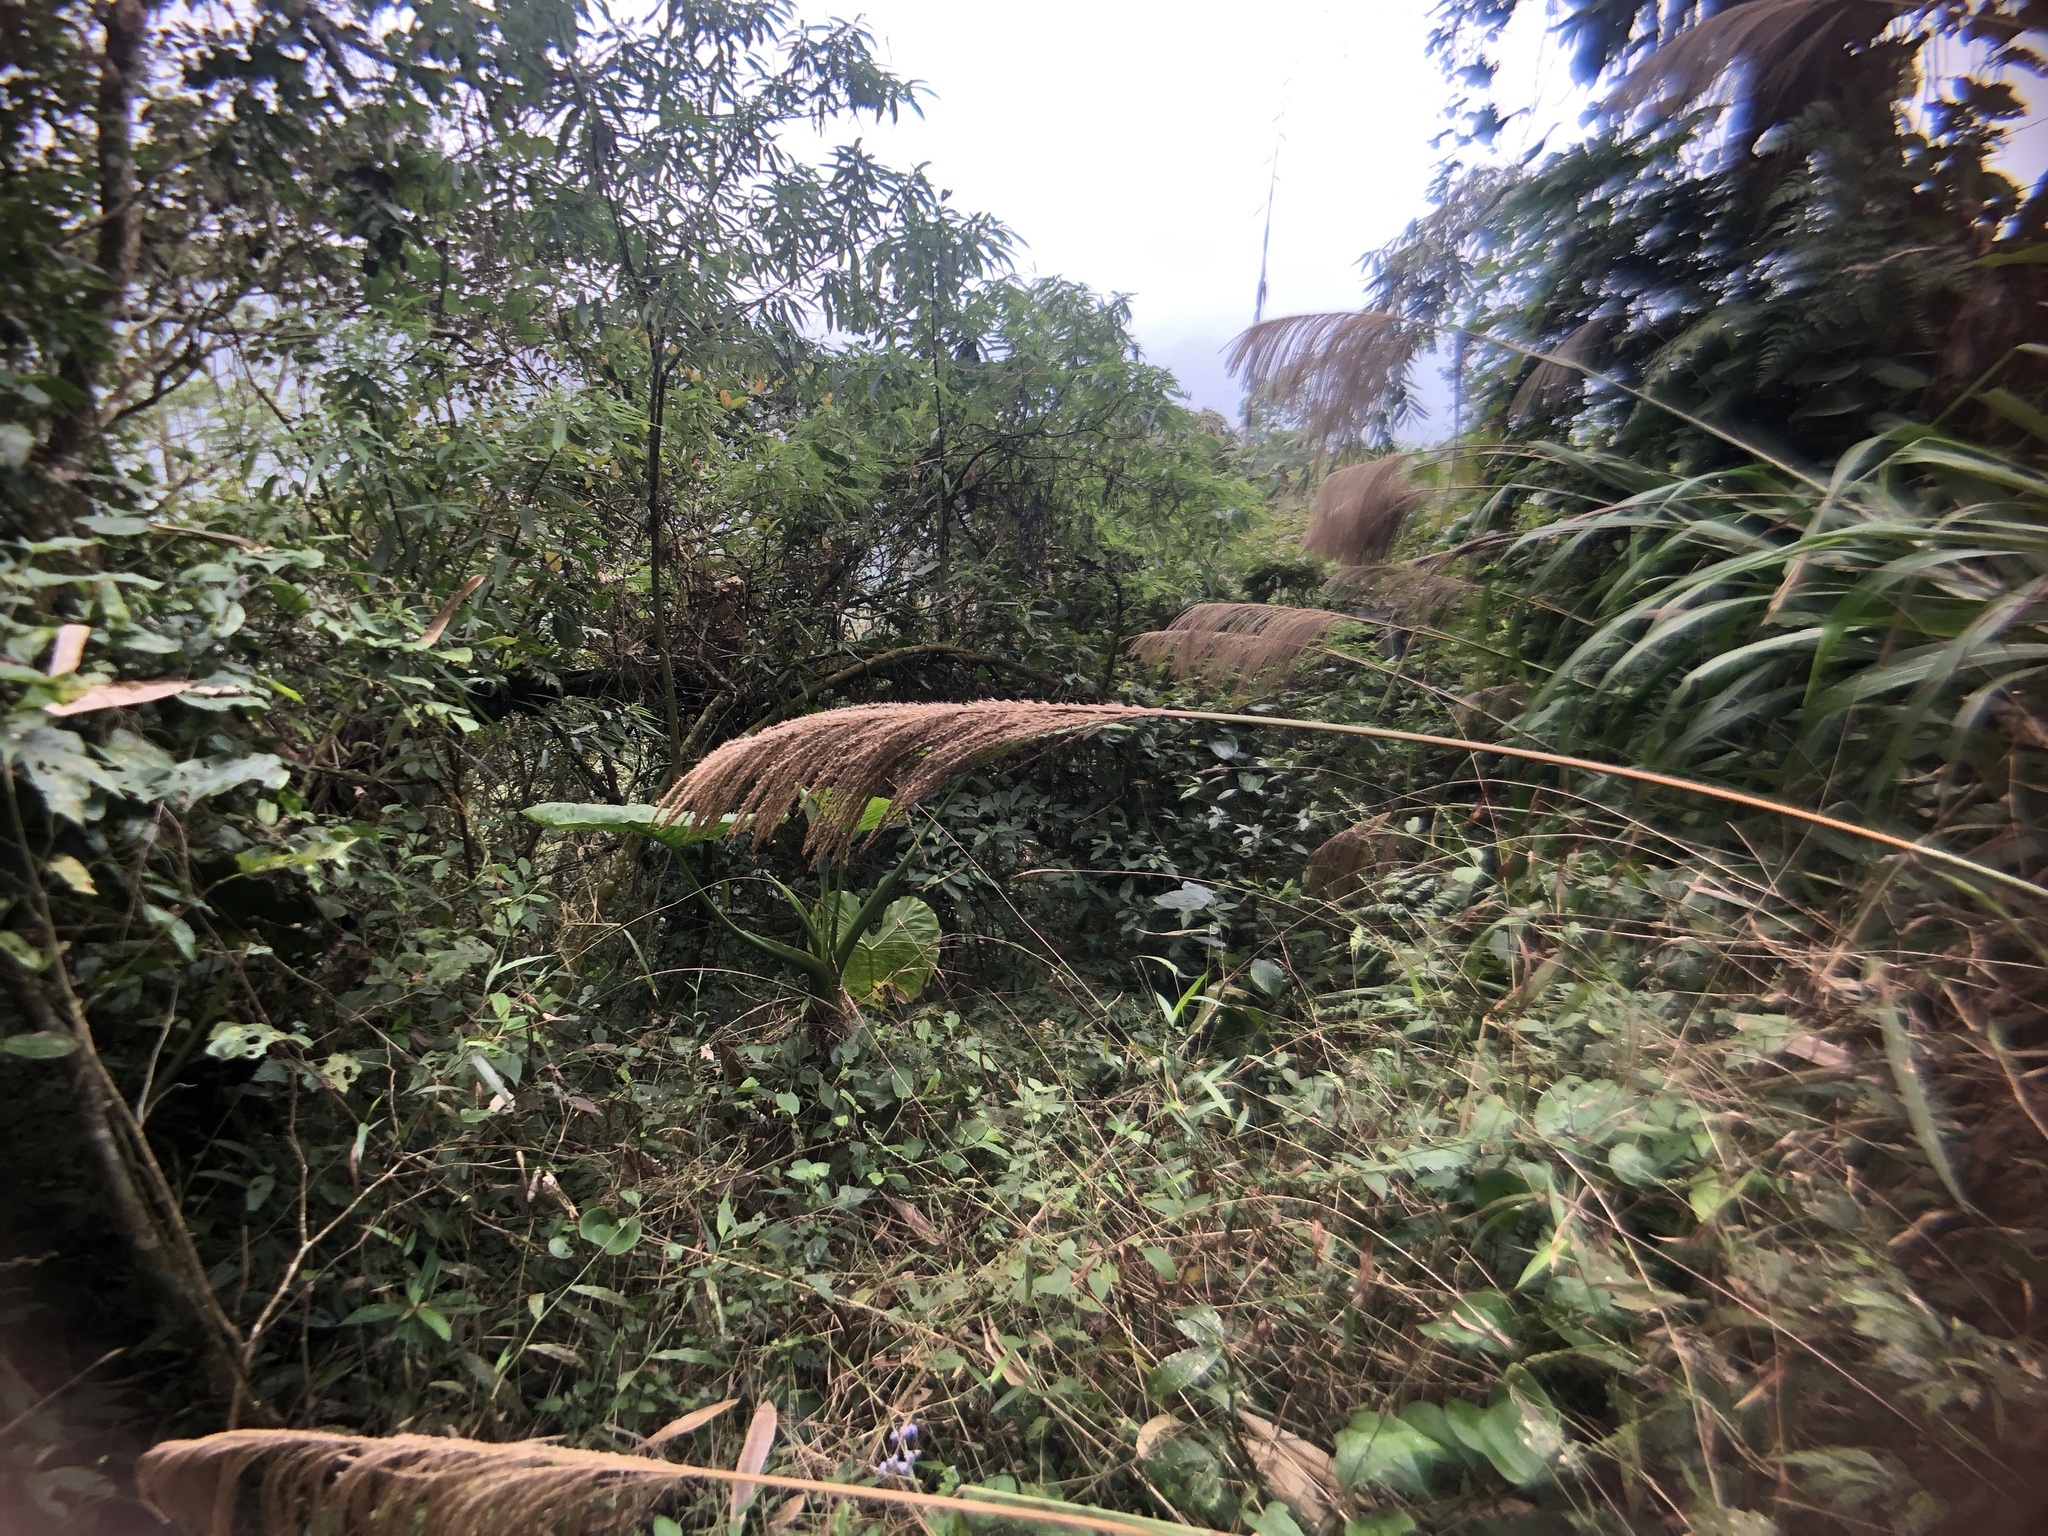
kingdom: Plantae
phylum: Tracheophyta
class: Liliopsida
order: Poales
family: Poaceae
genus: Miscanthus
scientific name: Miscanthus floridulus
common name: Pacific island silvergrass
